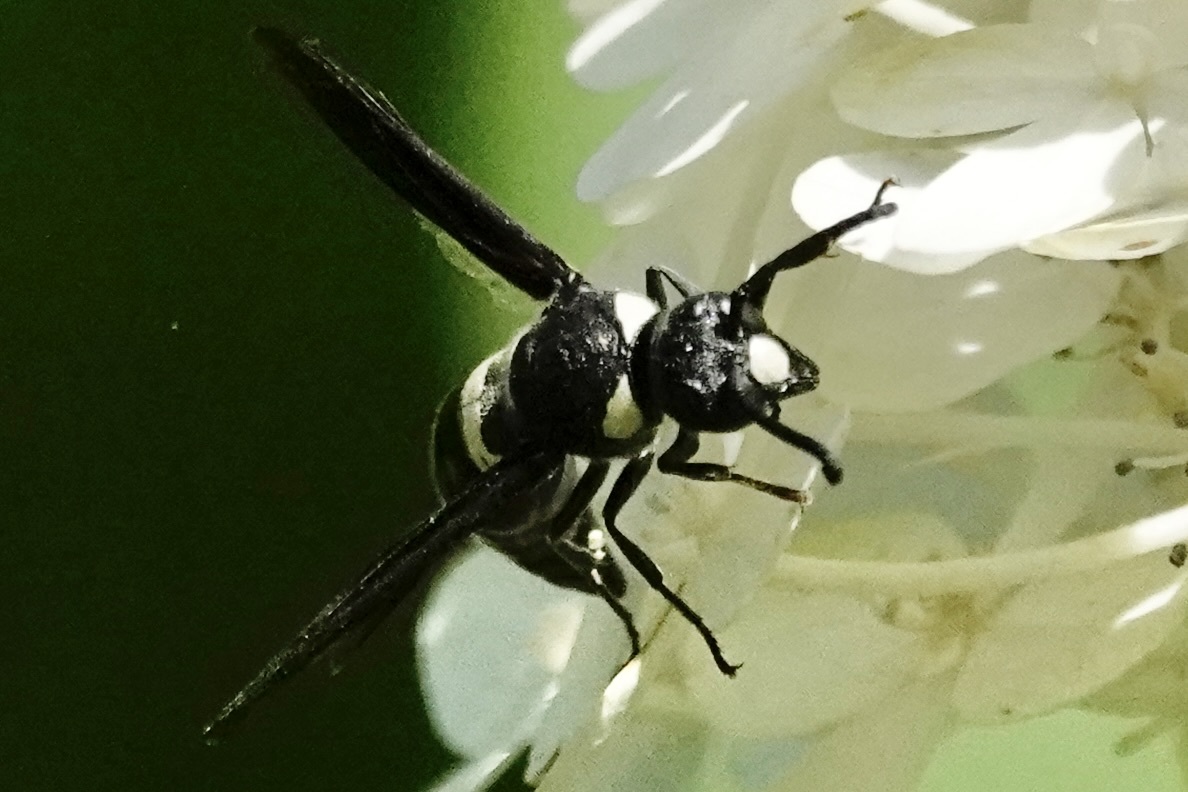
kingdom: Animalia
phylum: Arthropoda
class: Insecta
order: Hymenoptera
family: Eumenidae
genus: Monobia
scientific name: Monobia quadridens
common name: Four-toothed mason wasp
